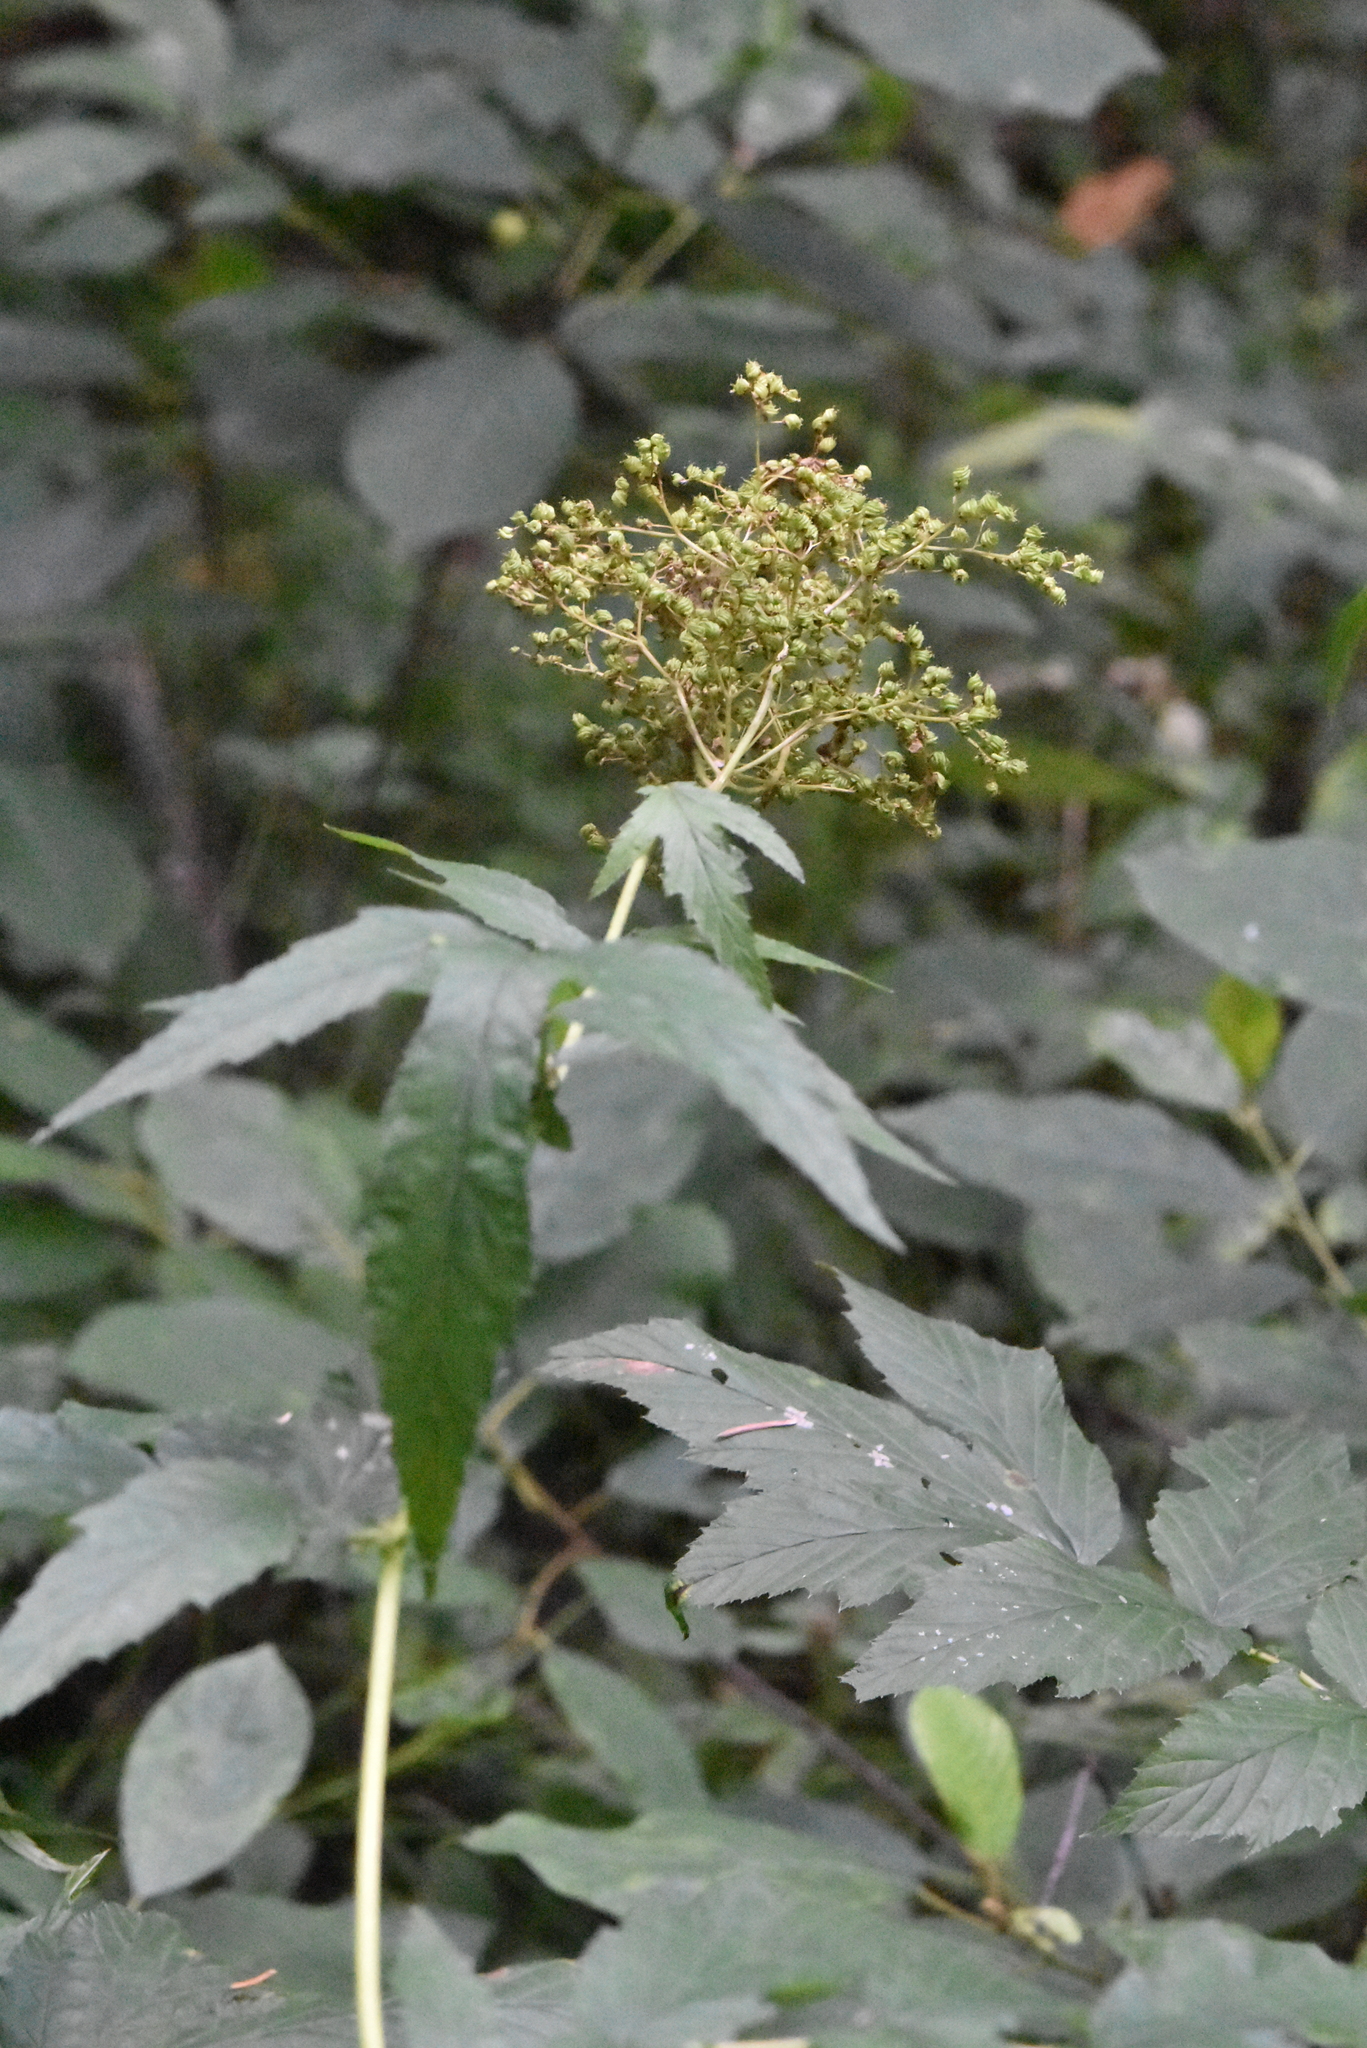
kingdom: Plantae
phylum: Tracheophyta
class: Magnoliopsida
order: Rosales
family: Rosaceae
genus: Filipendula
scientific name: Filipendula ulmaria
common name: Meadowsweet
